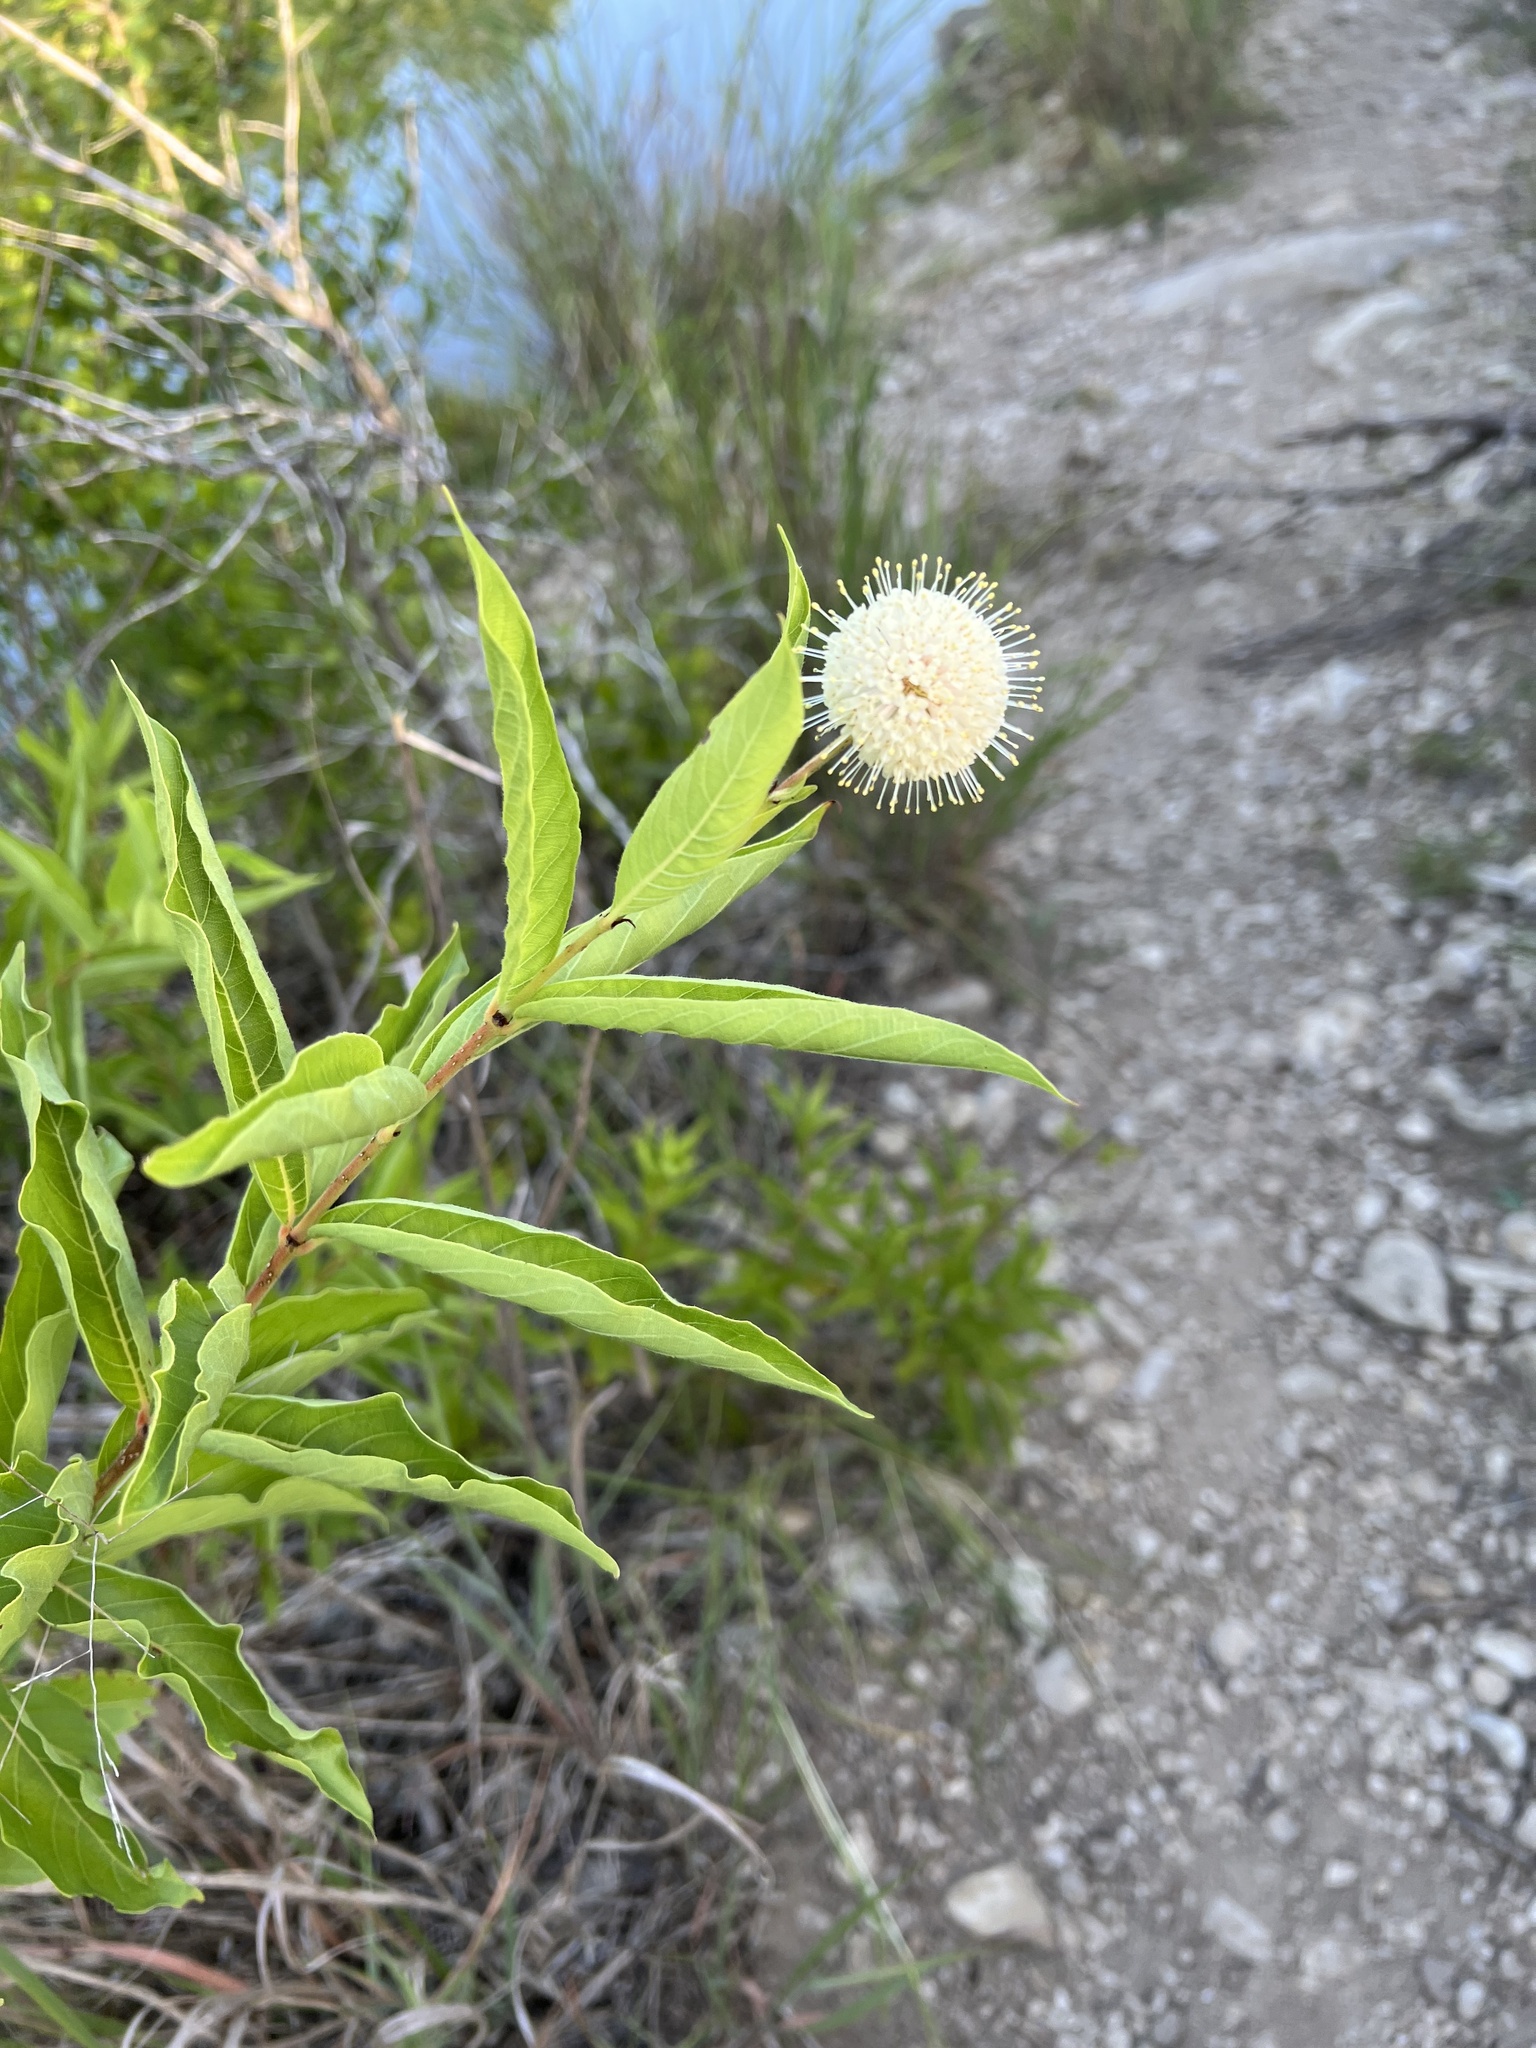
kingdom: Plantae
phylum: Tracheophyta
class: Magnoliopsida
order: Gentianales
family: Rubiaceae
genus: Cephalanthus
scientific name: Cephalanthus occidentalis
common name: Button-willow
